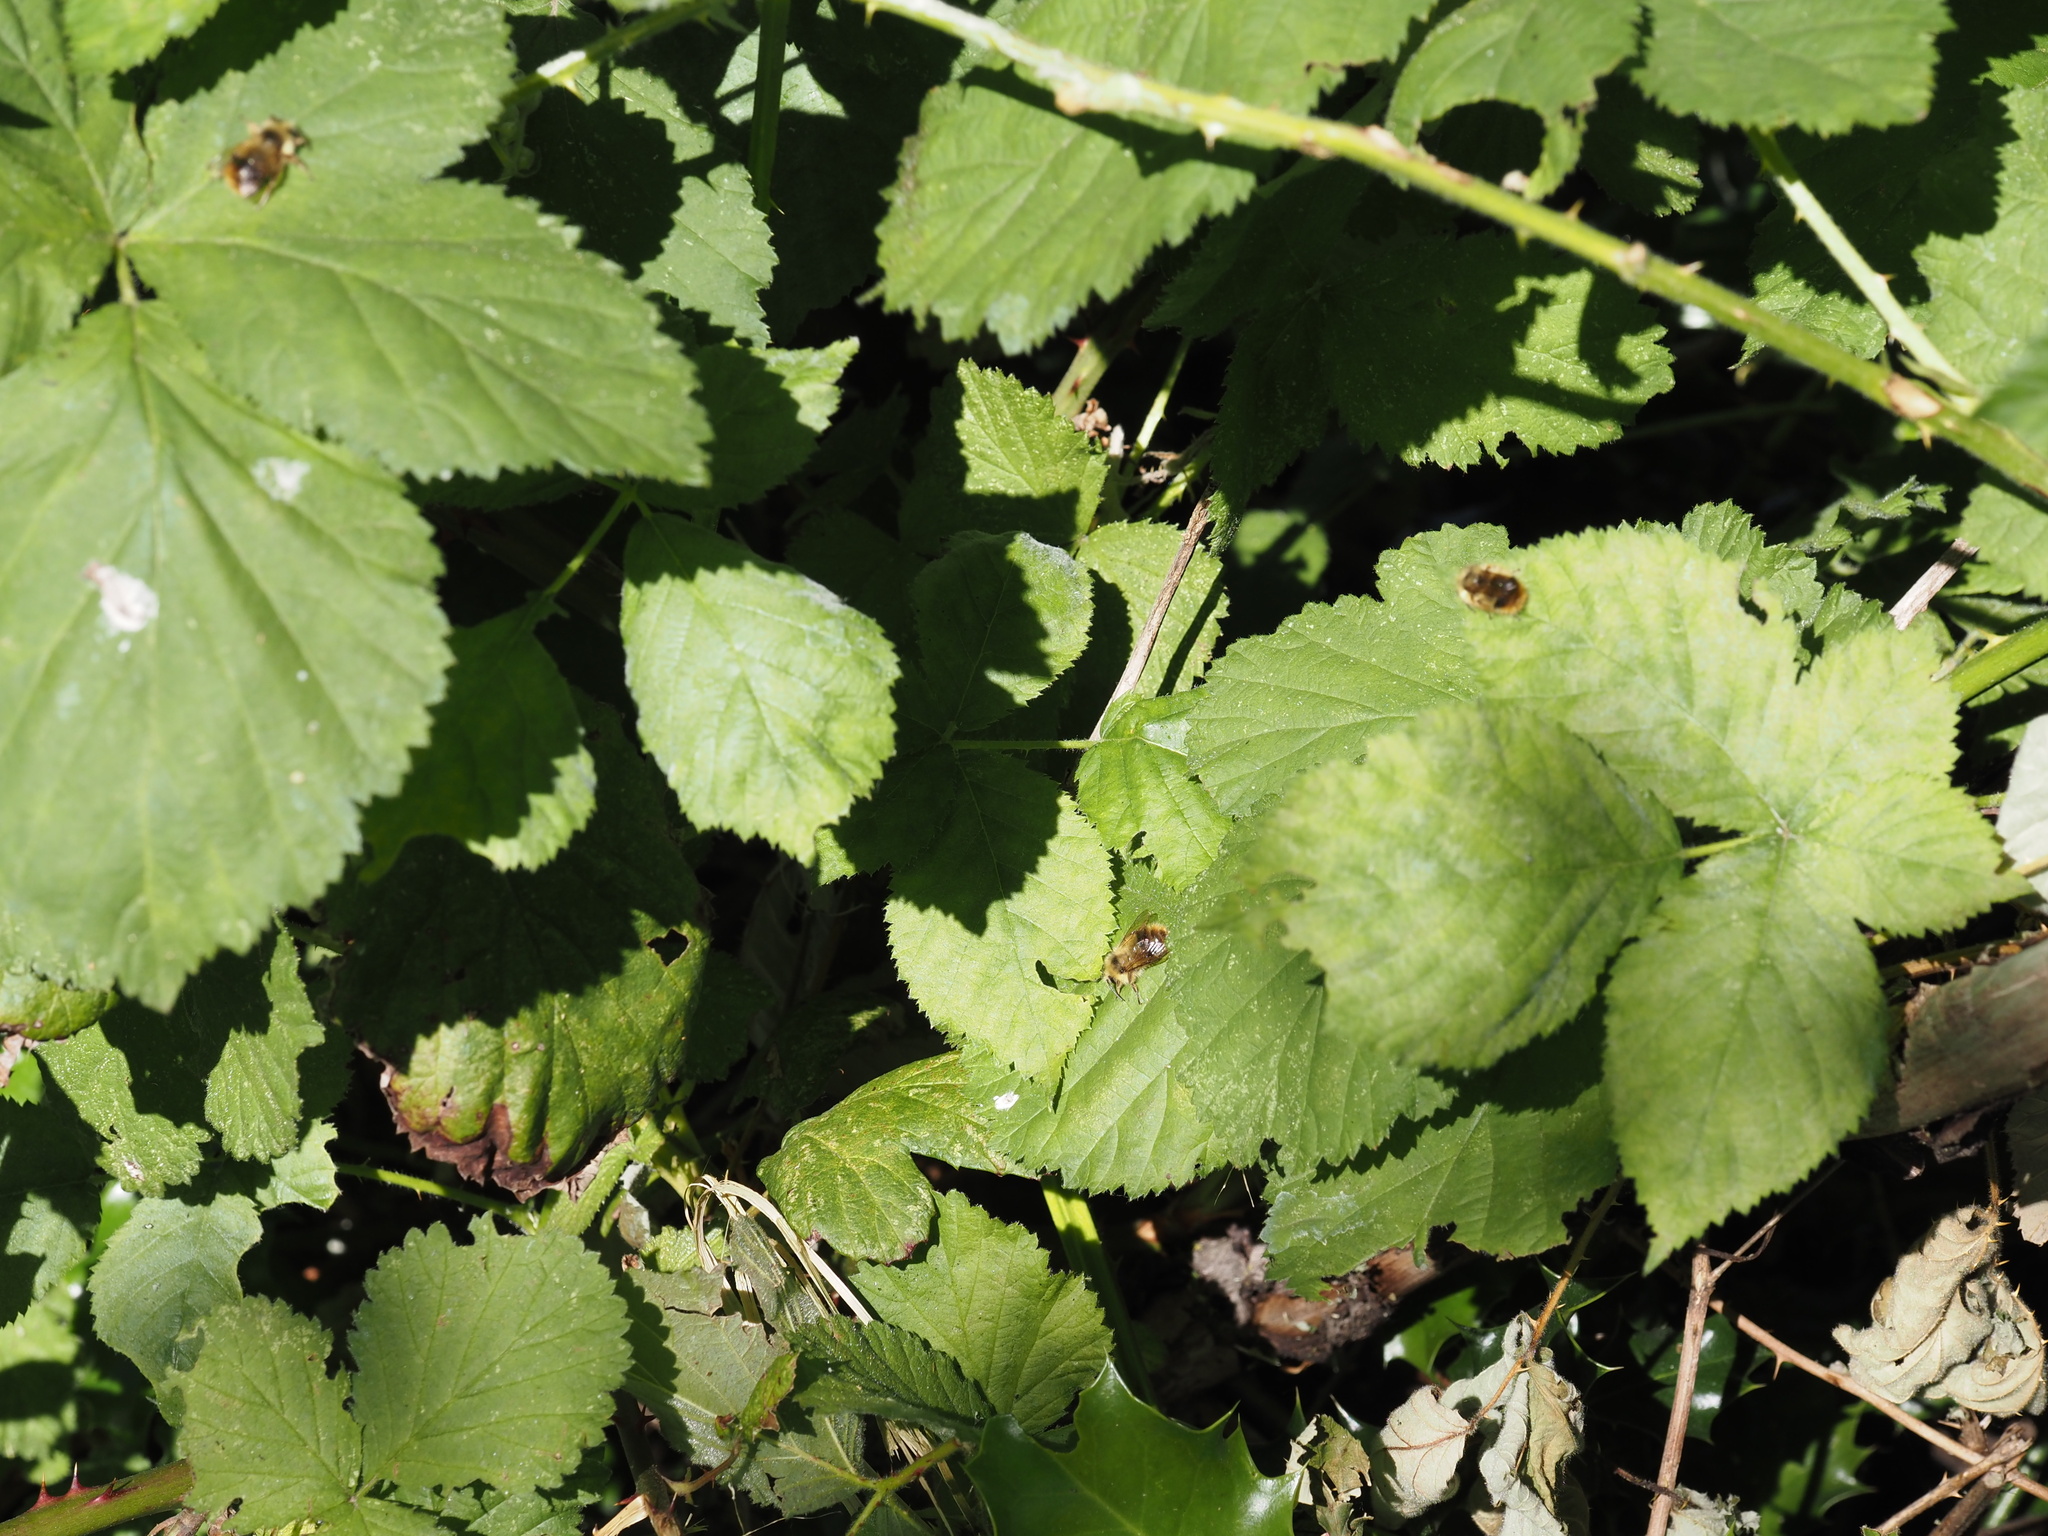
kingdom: Animalia
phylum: Arthropoda
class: Insecta
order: Hymenoptera
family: Apidae
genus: Bombus
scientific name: Bombus mixtus
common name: Fuzzy-horned bumble bee
